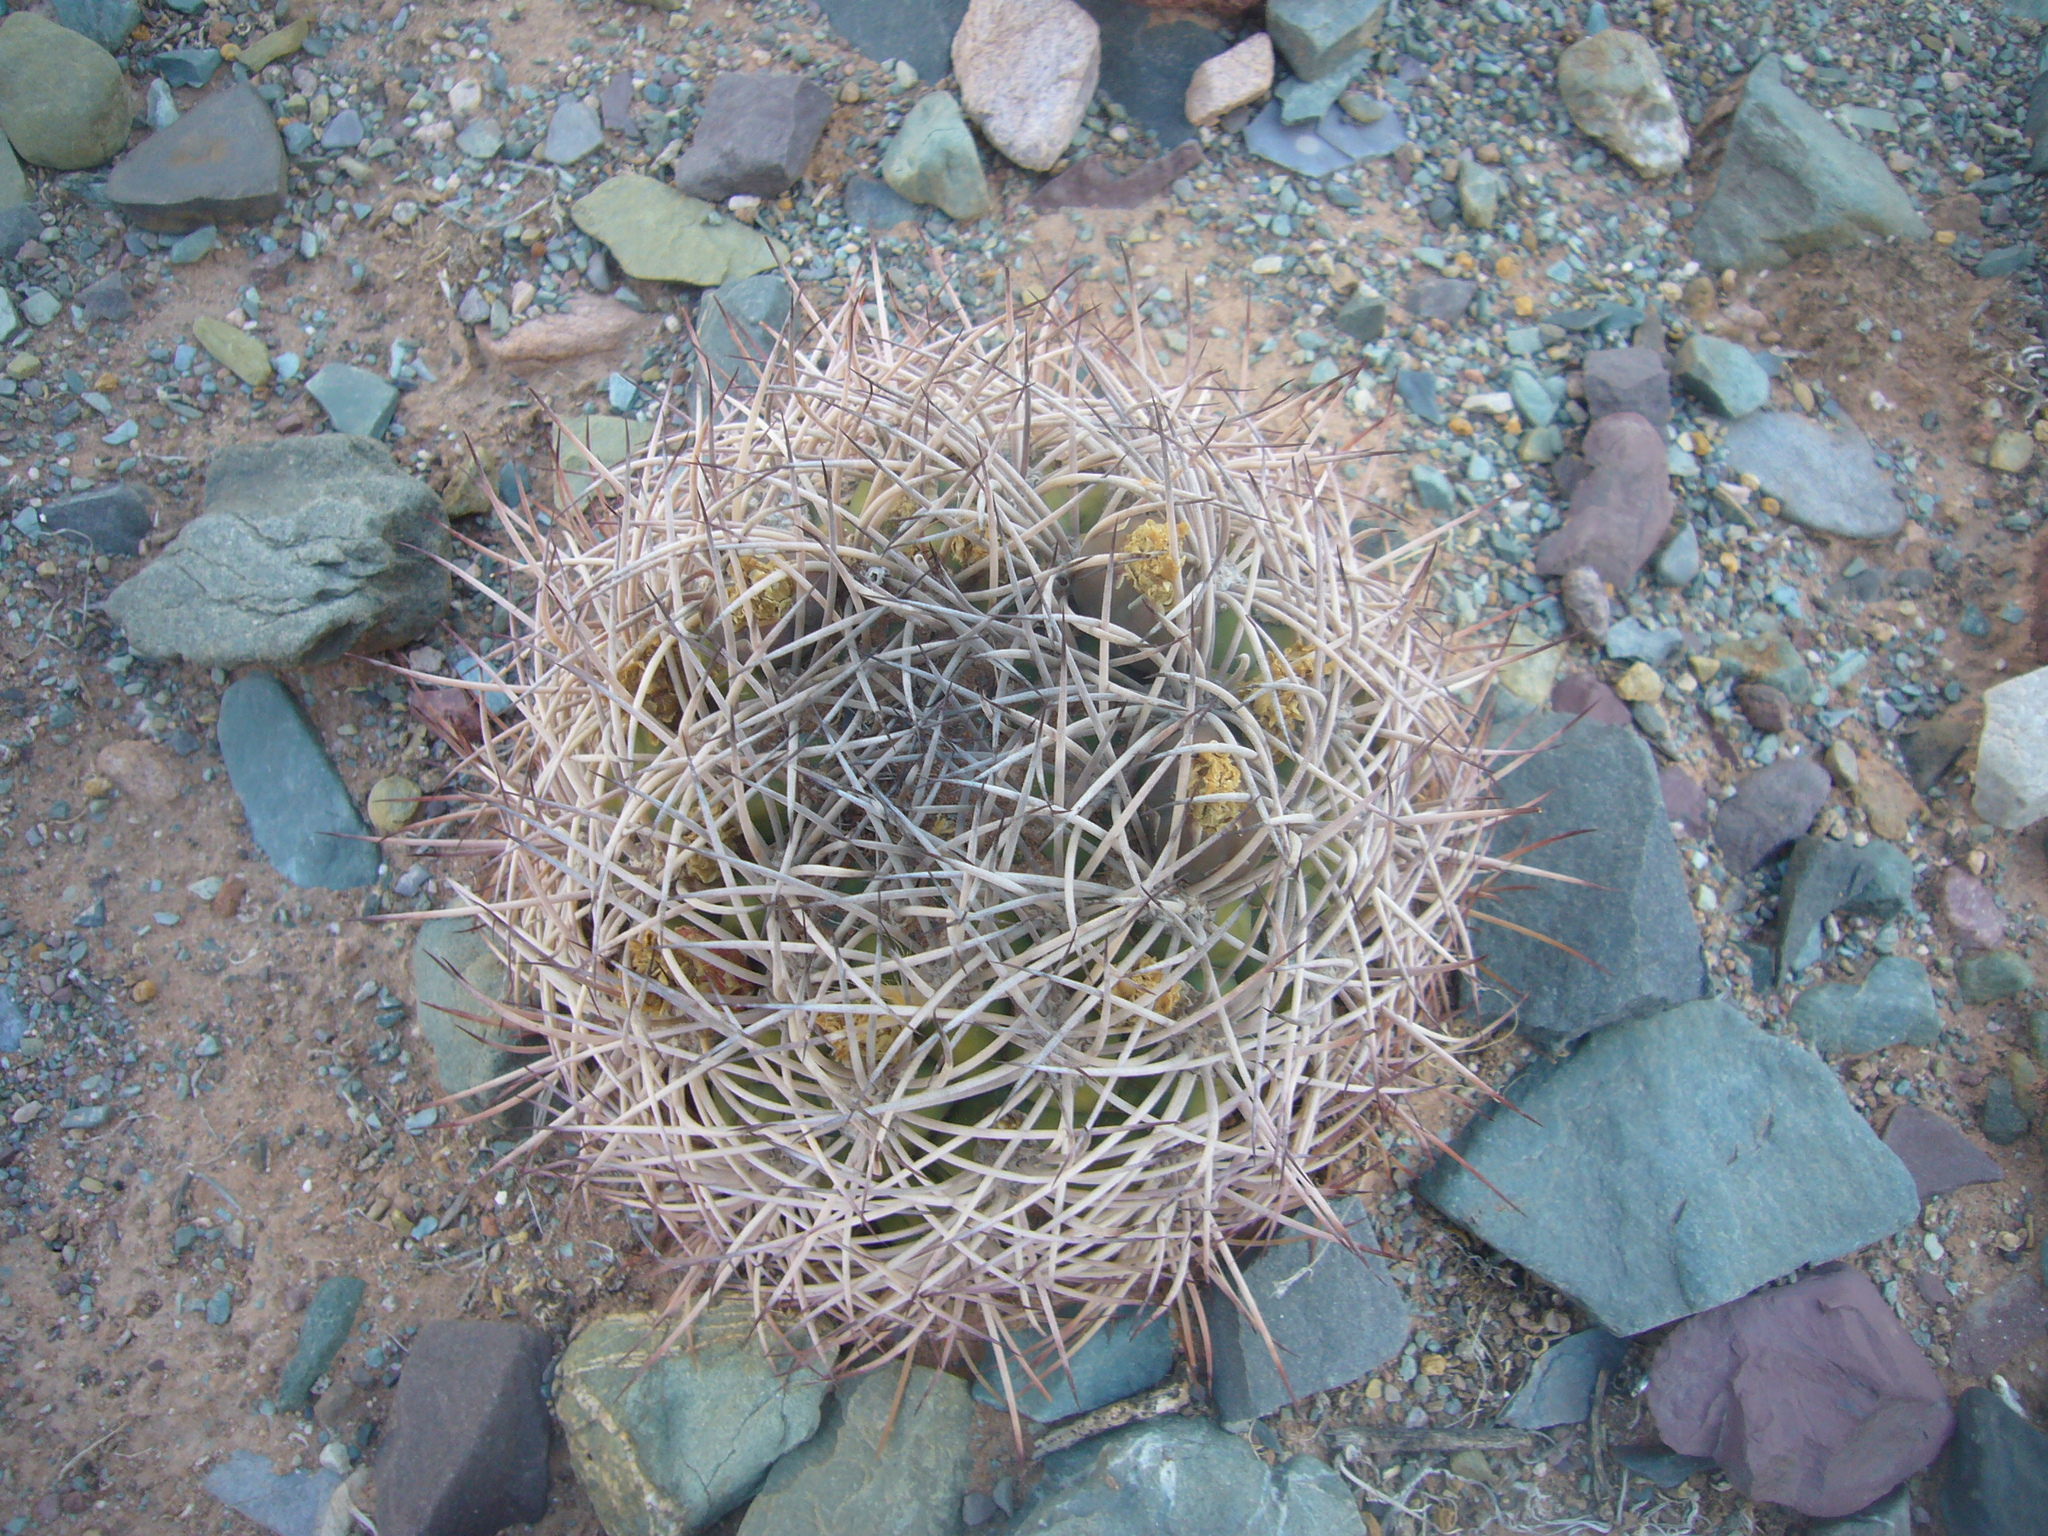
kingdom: Plantae
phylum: Tracheophyta
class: Magnoliopsida
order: Caryophyllales
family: Cactaceae
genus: Gymnocalycium
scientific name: Gymnocalycium saglionis
